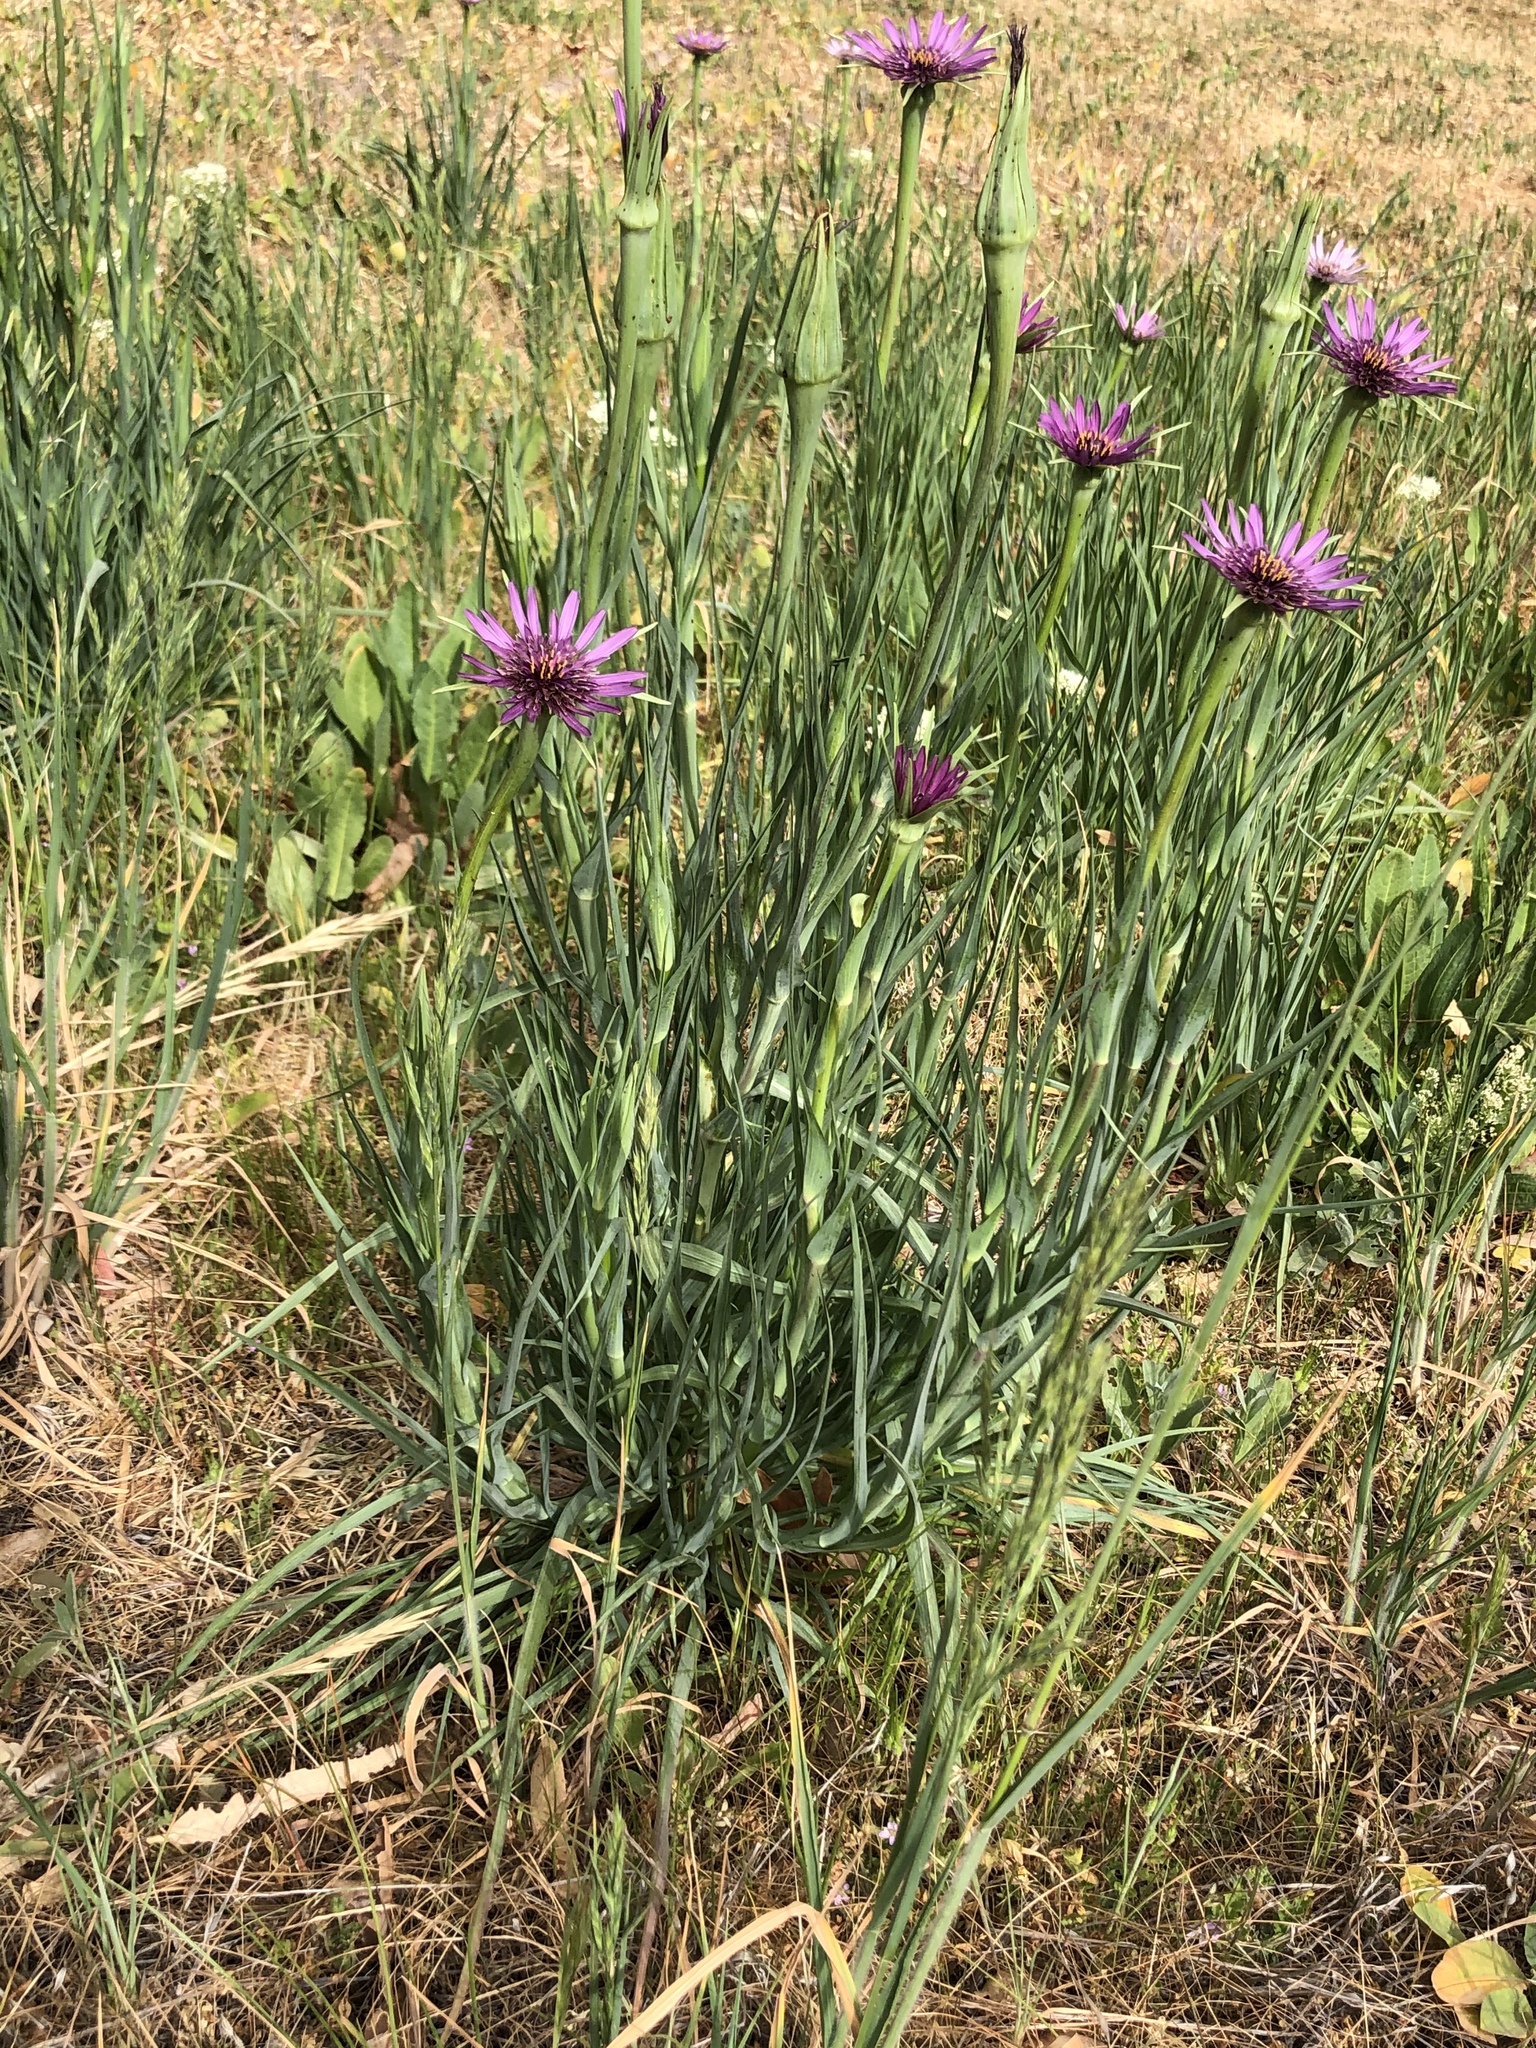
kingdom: Plantae
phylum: Tracheophyta
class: Magnoliopsida
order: Asterales
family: Asteraceae
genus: Tragopogon
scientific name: Tragopogon porrifolius
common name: Salsify
